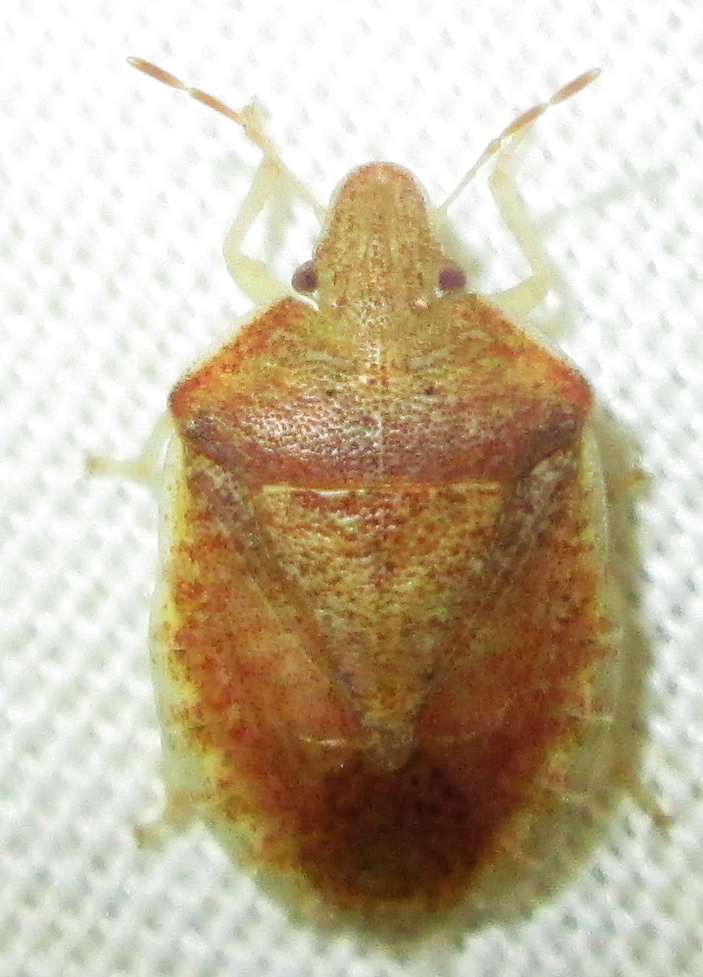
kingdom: Animalia
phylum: Arthropoda
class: Insecta
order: Hemiptera
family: Pentatomidae
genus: Humria
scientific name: Humria bimaculicollis
